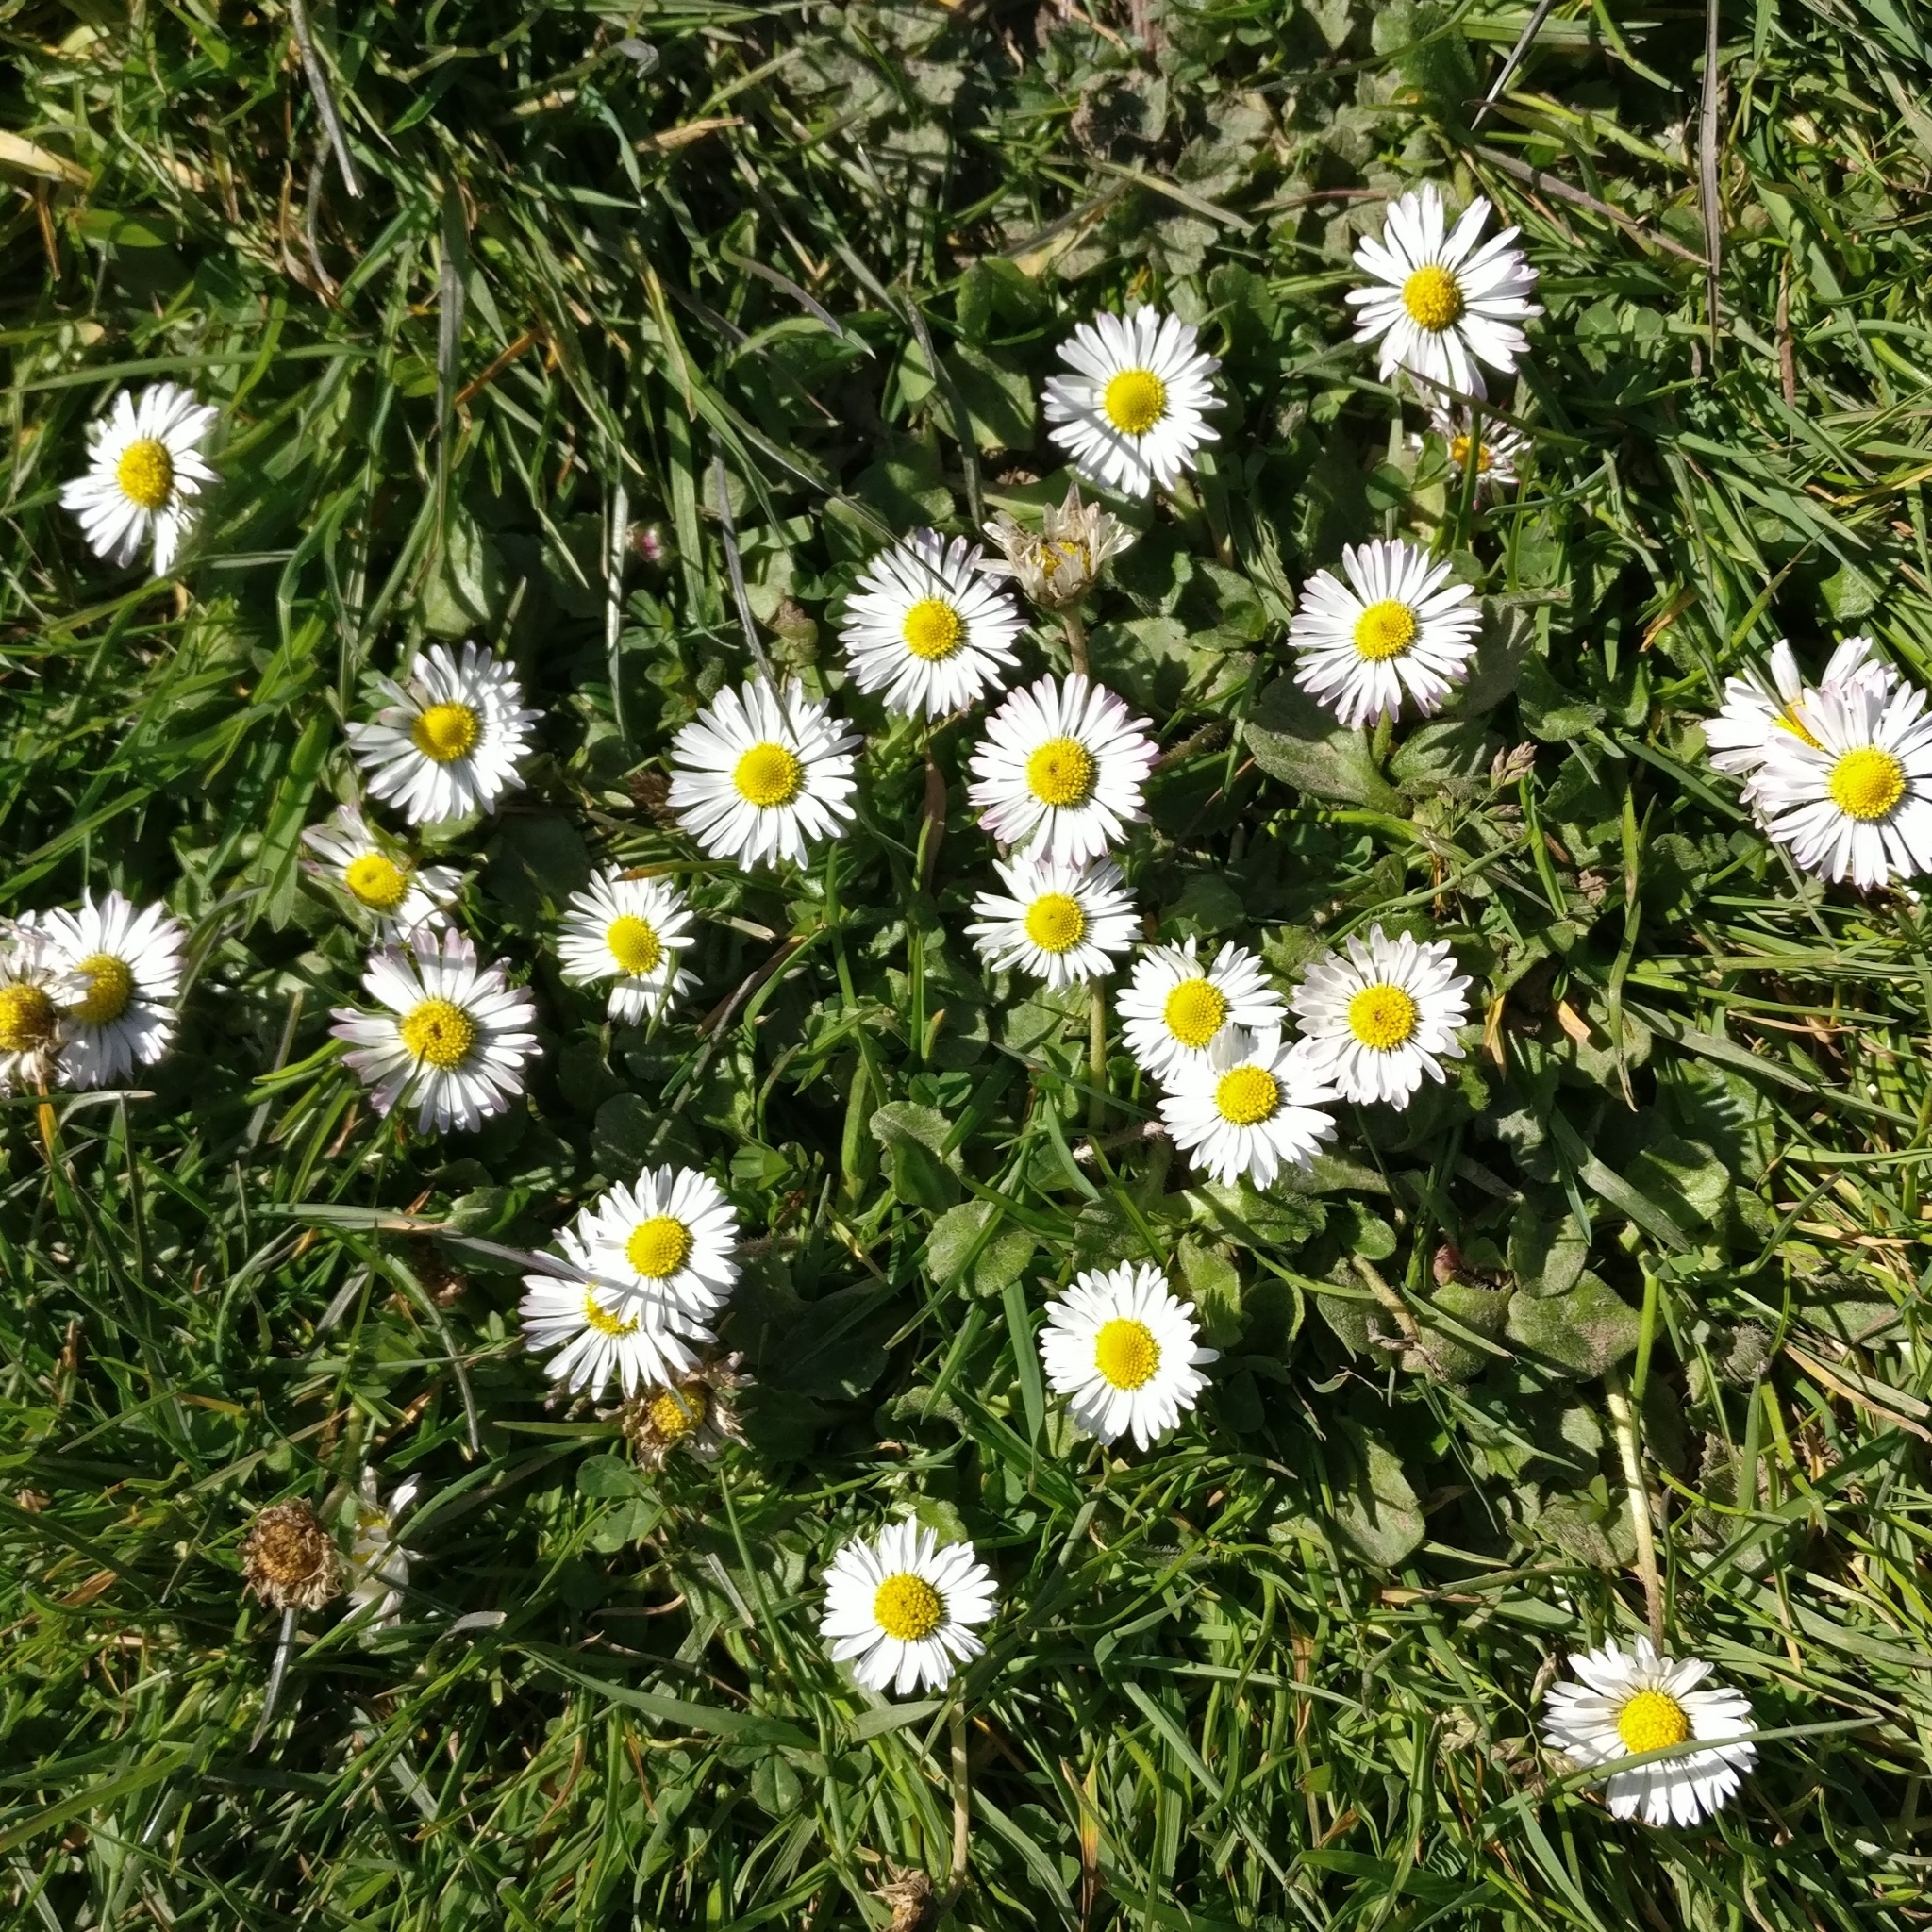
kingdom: Plantae
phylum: Tracheophyta
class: Magnoliopsida
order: Asterales
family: Asteraceae
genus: Bellis
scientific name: Bellis perennis
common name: Lawndaisy
